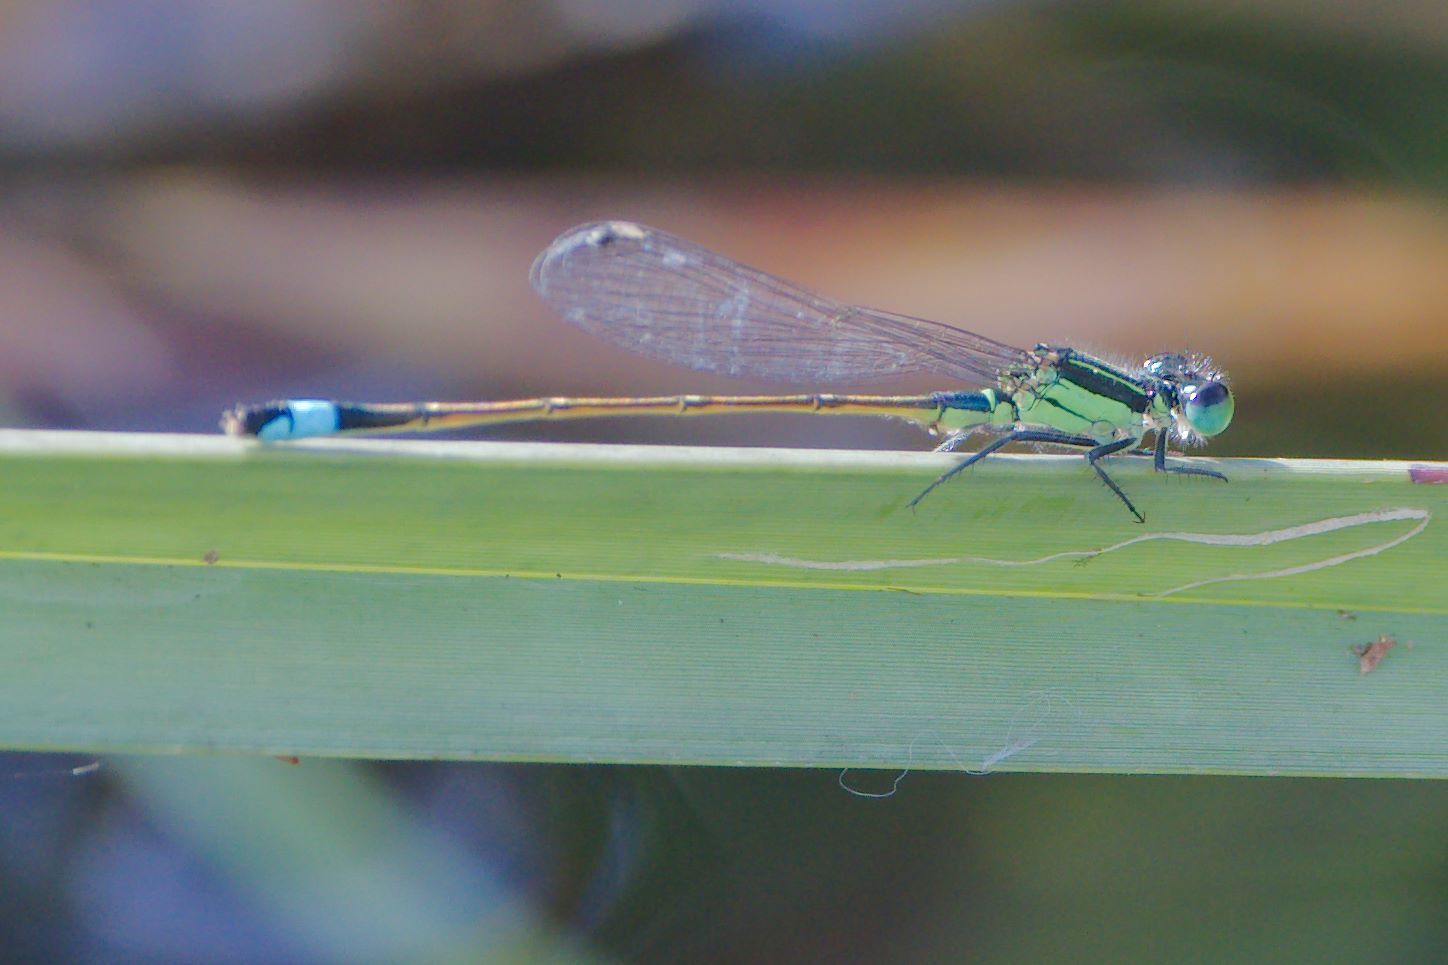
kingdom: Animalia
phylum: Arthropoda
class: Insecta
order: Odonata
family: Coenagrionidae
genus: Ischnura
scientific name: Ischnura ramburii
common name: Rambur's forktail
